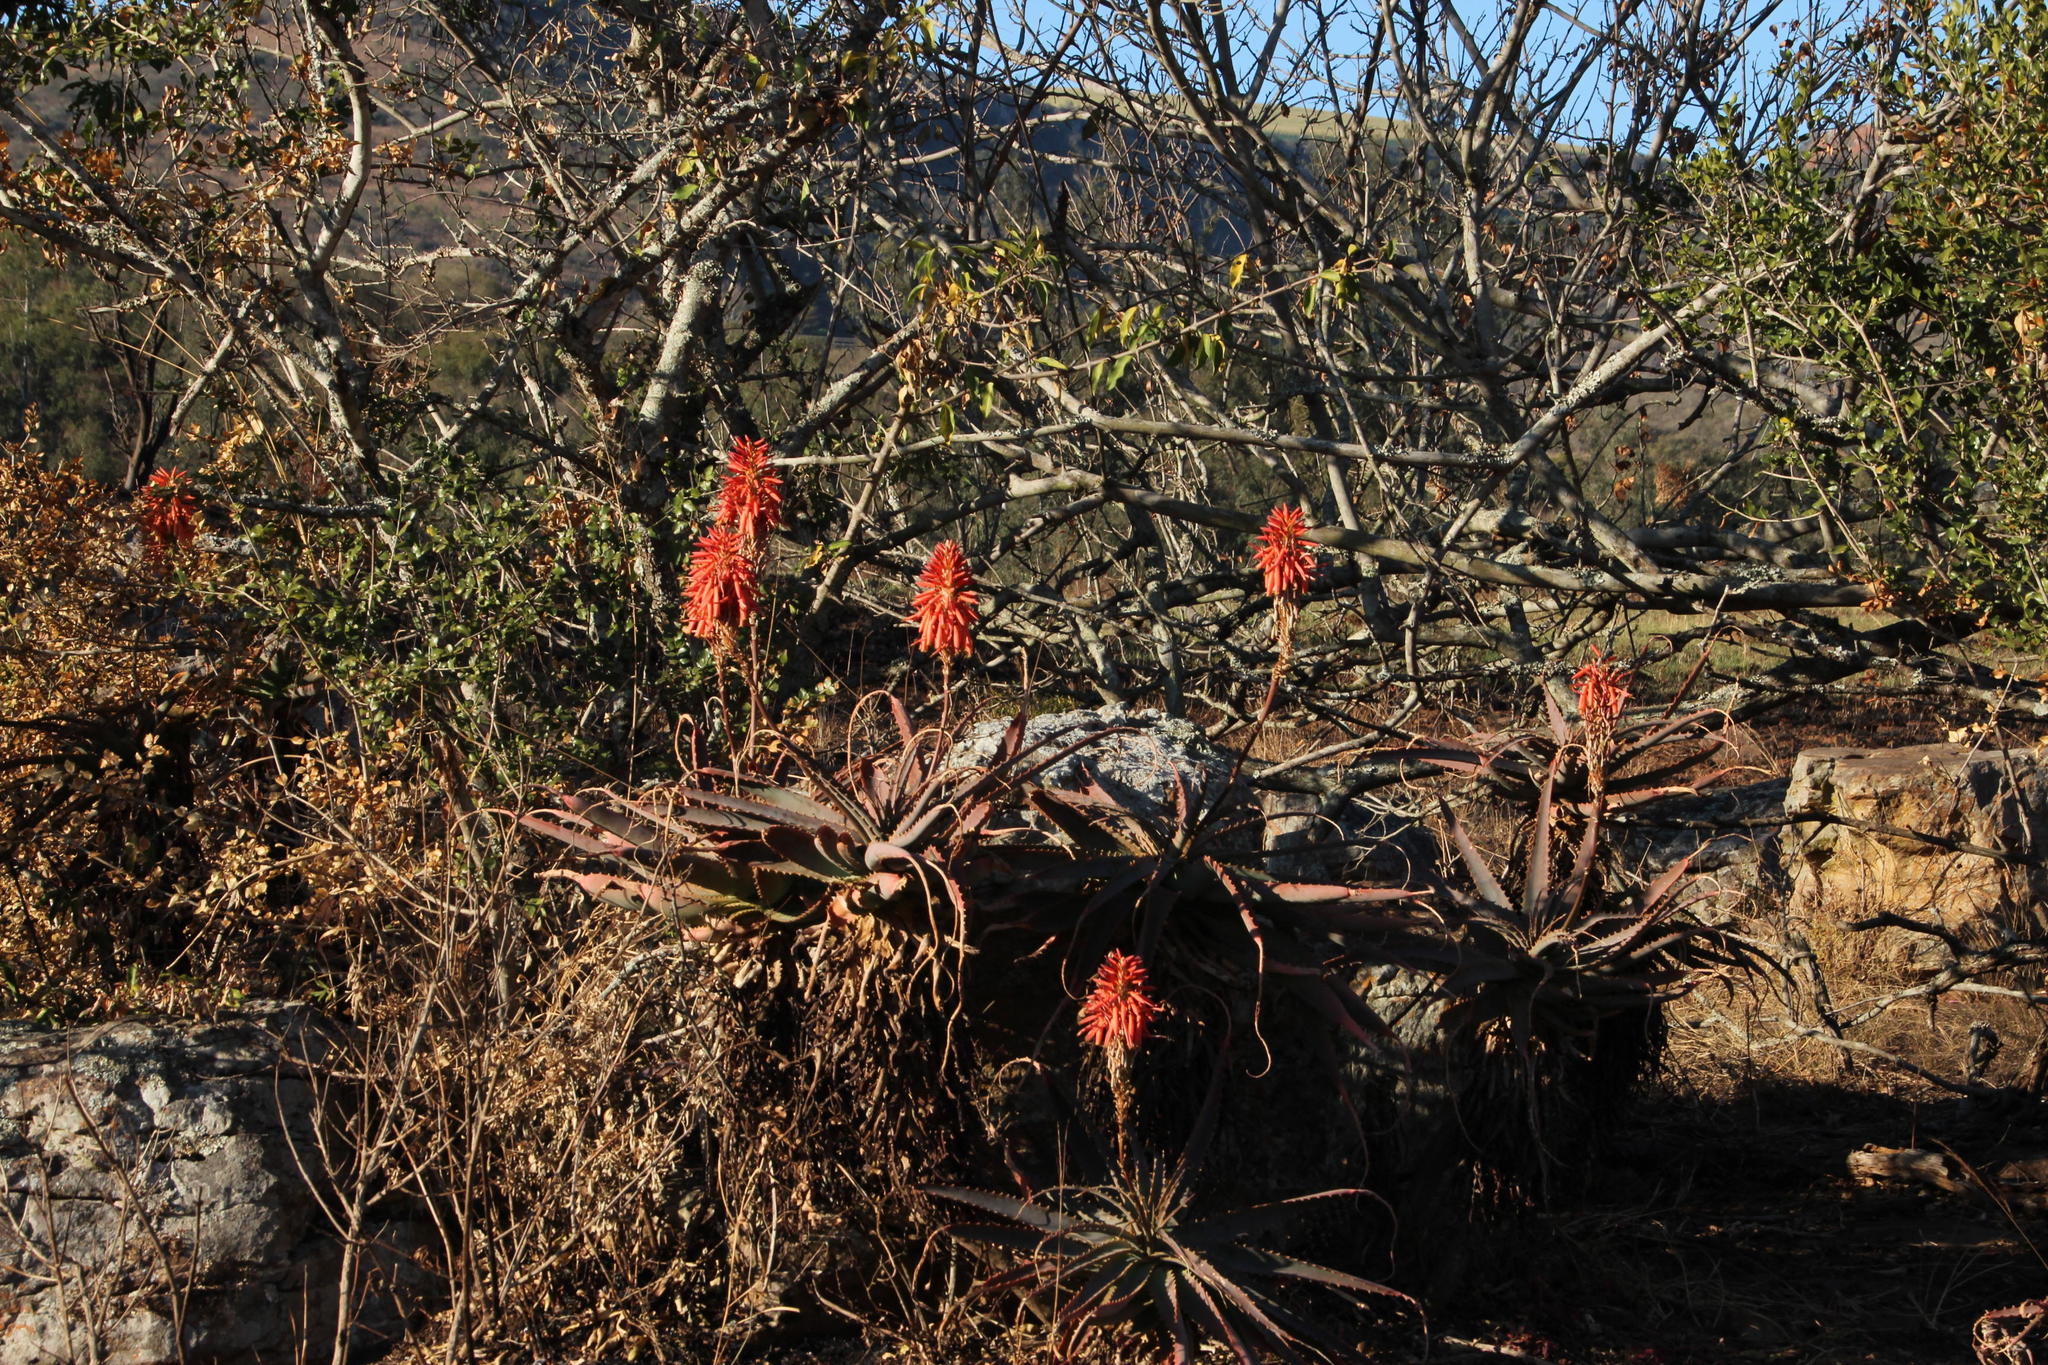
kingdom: Plantae
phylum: Tracheophyta
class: Liliopsida
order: Asparagales
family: Asphodelaceae
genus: Aloe
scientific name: Aloe arborescens
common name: Candelabra aloe
